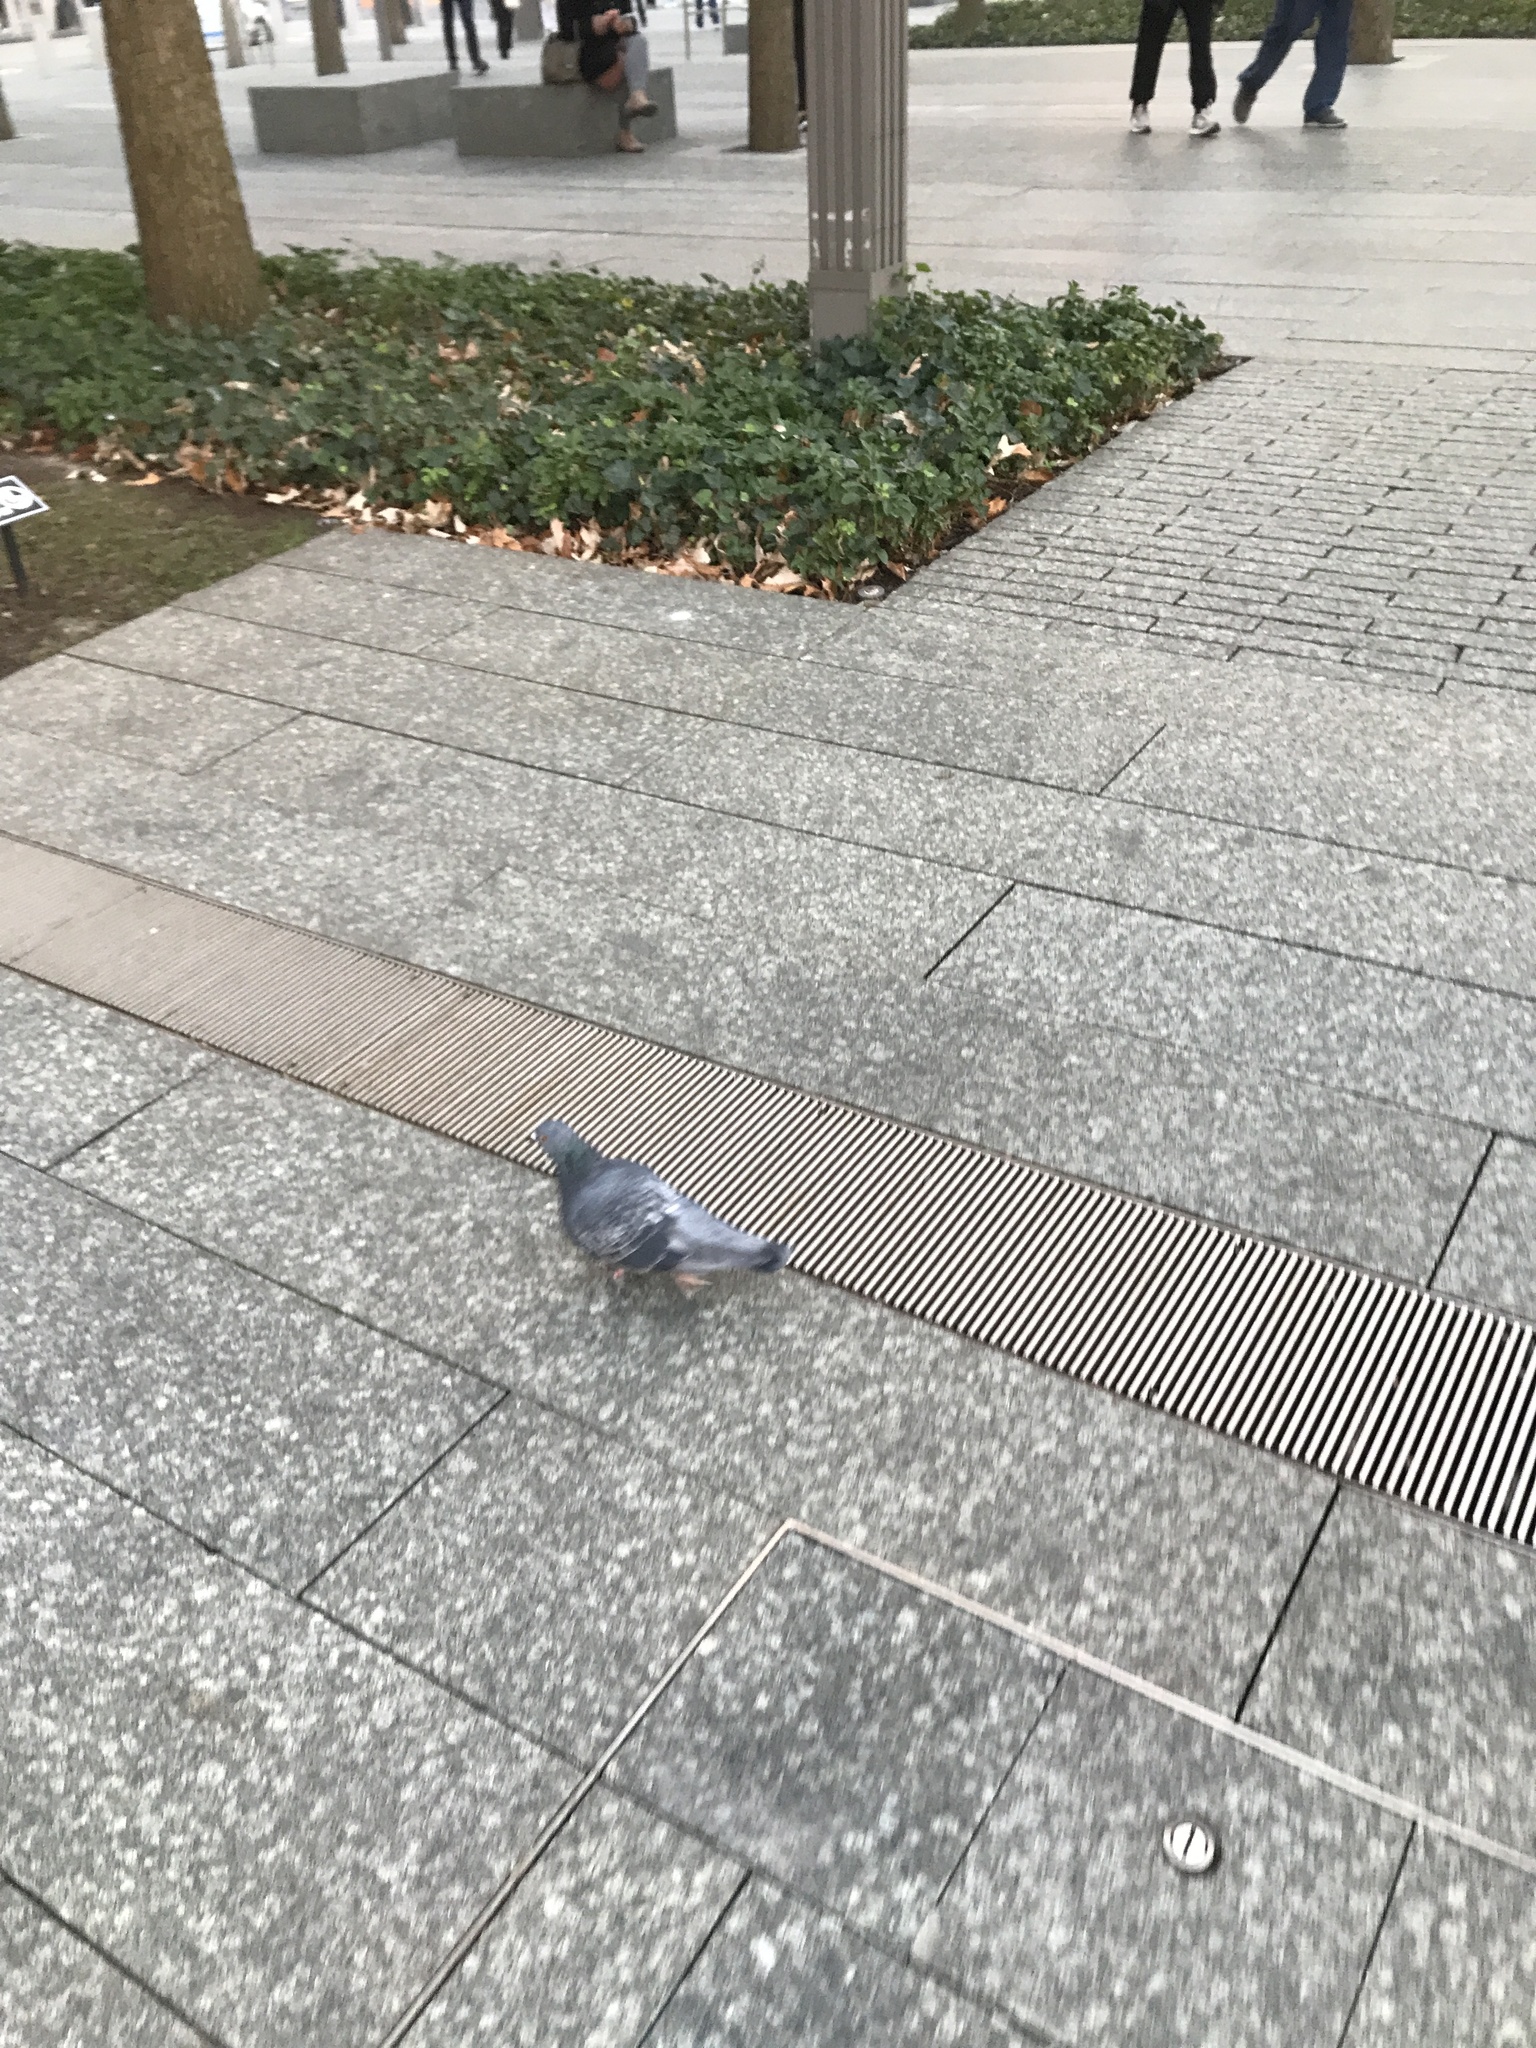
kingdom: Animalia
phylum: Chordata
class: Aves
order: Columbiformes
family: Columbidae
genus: Columba
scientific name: Columba livia
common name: Rock pigeon
